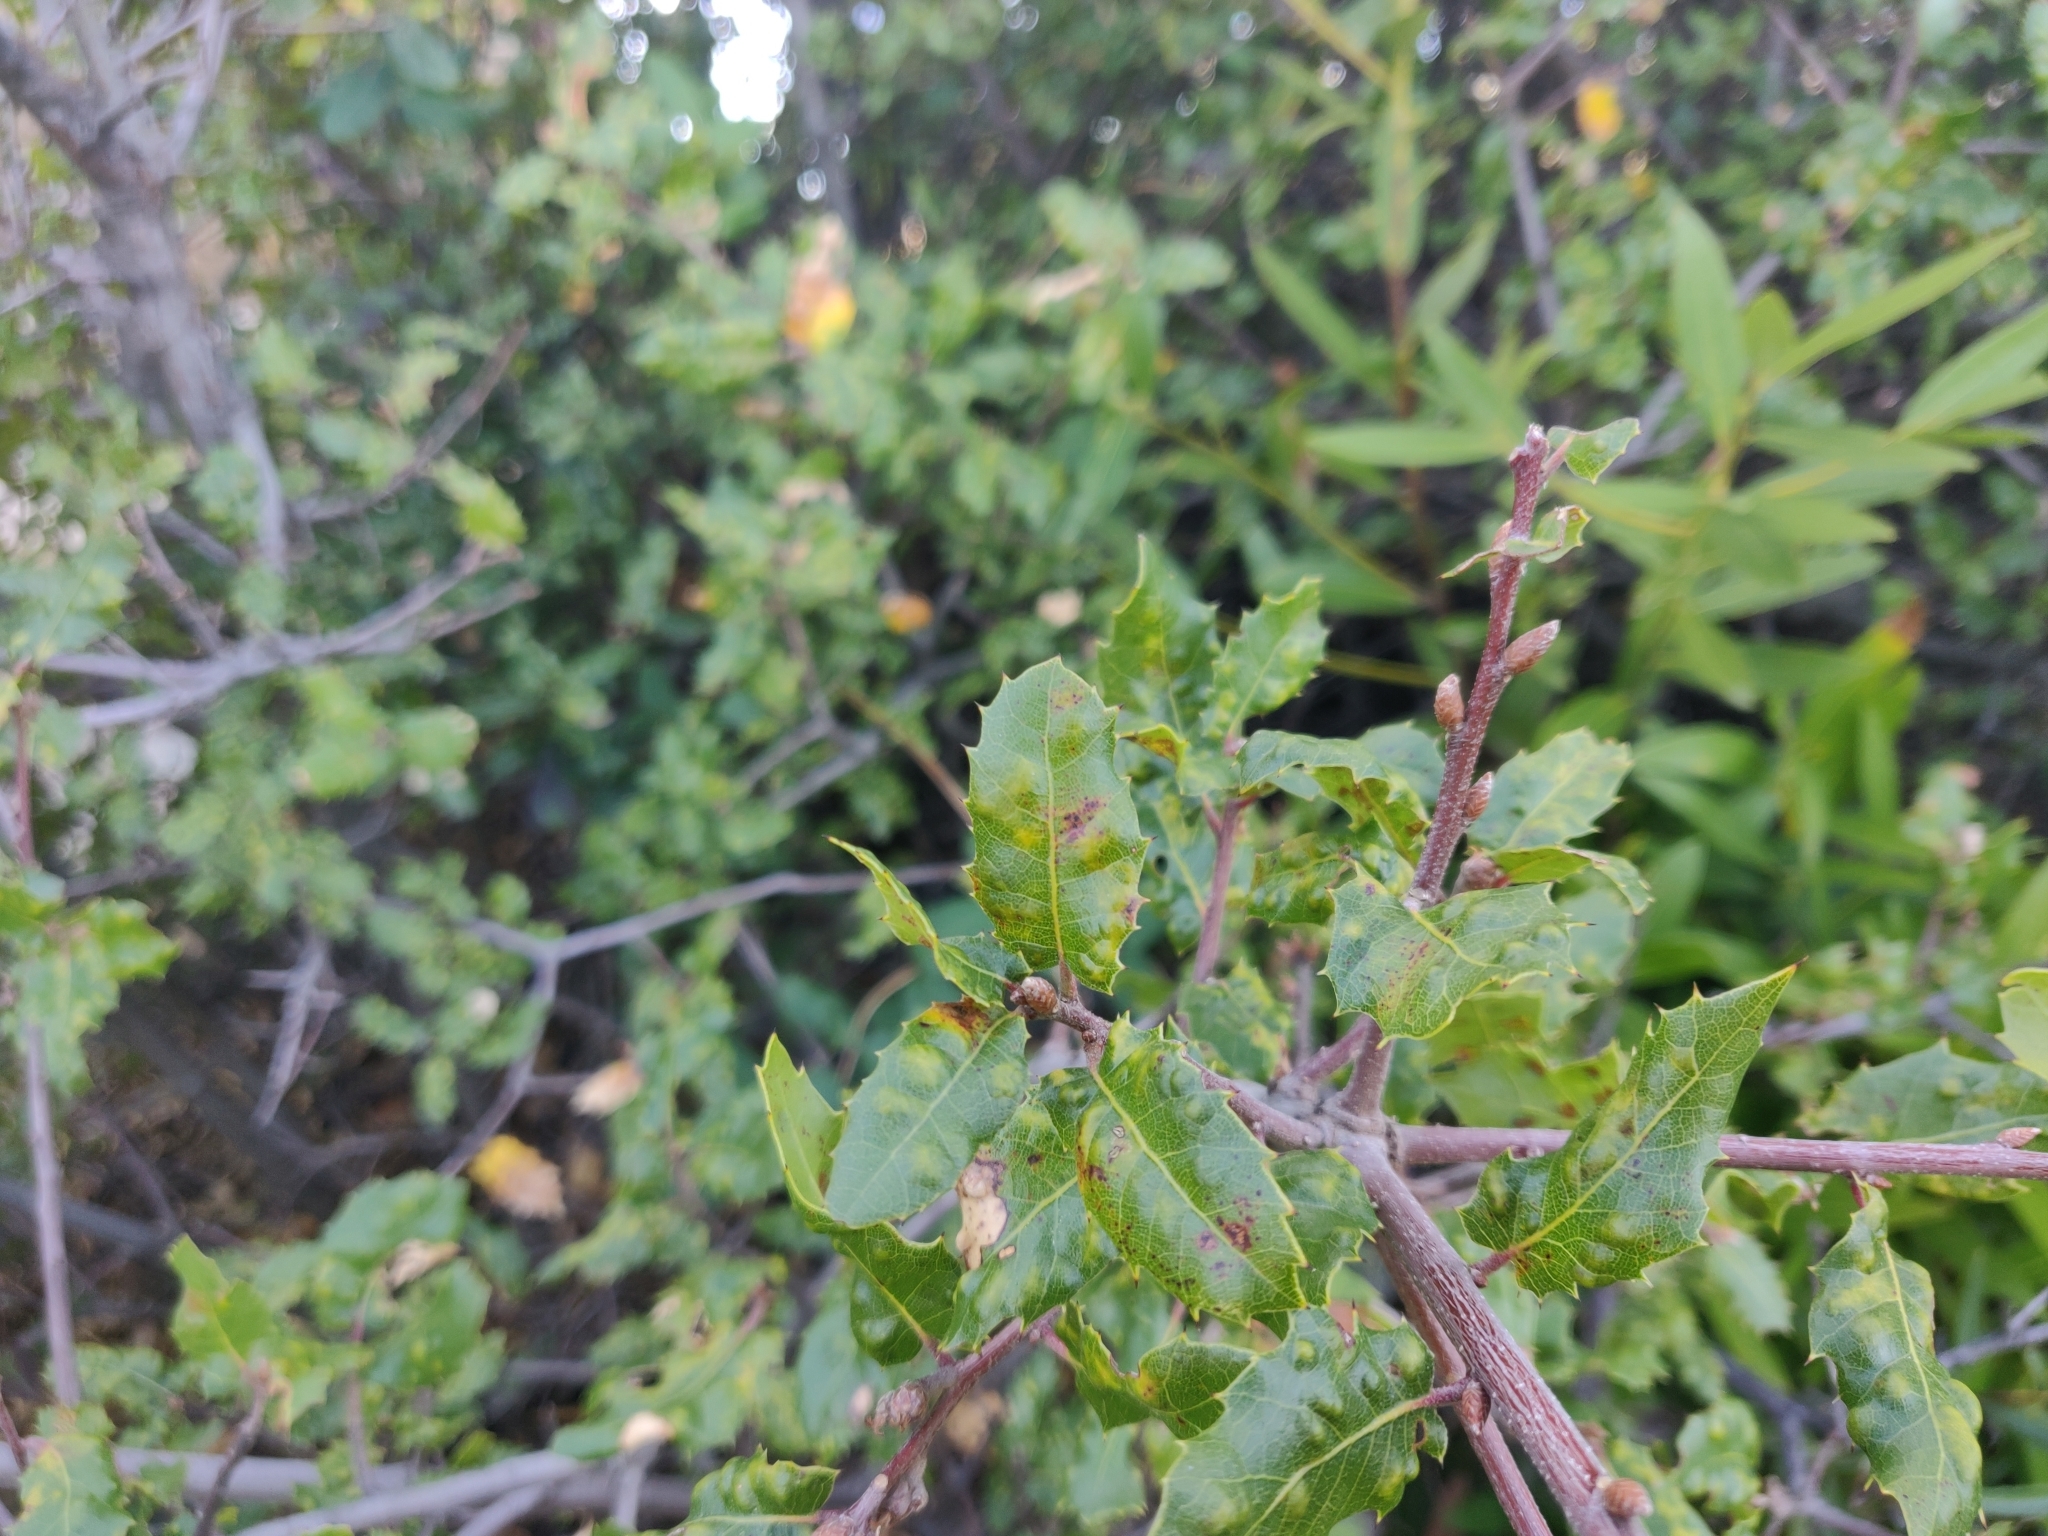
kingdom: Animalia
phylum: Arthropoda
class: Arachnida
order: Trombidiformes
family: Eriophyidae
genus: Aceria
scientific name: Aceria
